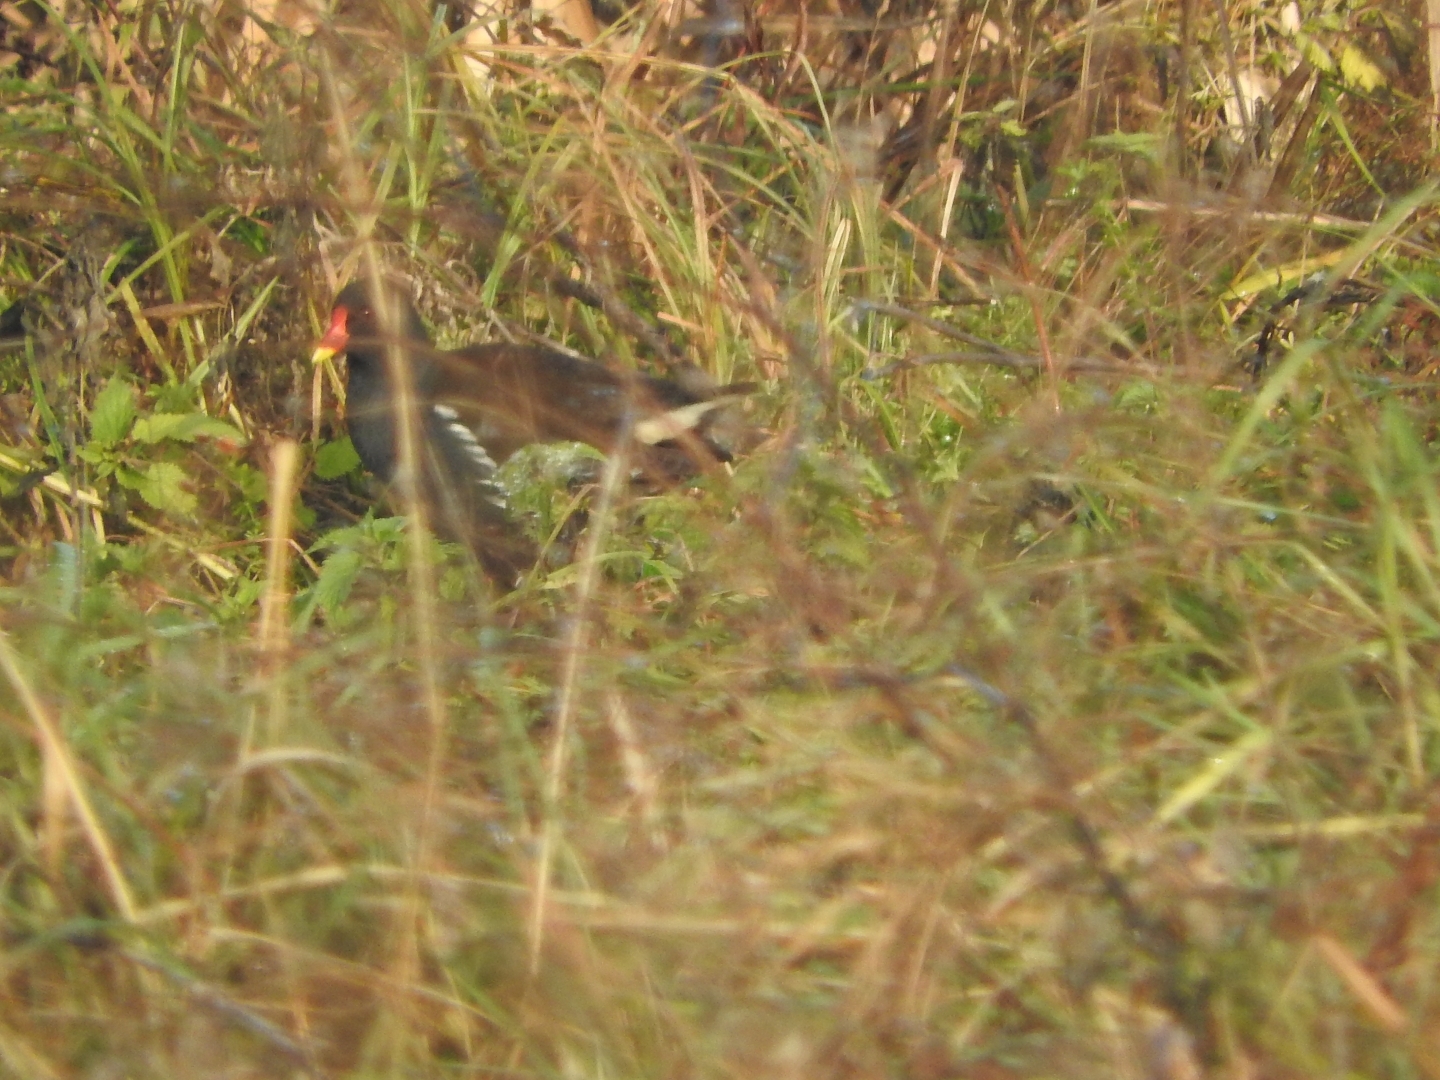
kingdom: Animalia
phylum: Chordata
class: Aves
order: Gruiformes
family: Rallidae
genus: Gallinula
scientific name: Gallinula chloropus
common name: Common moorhen
